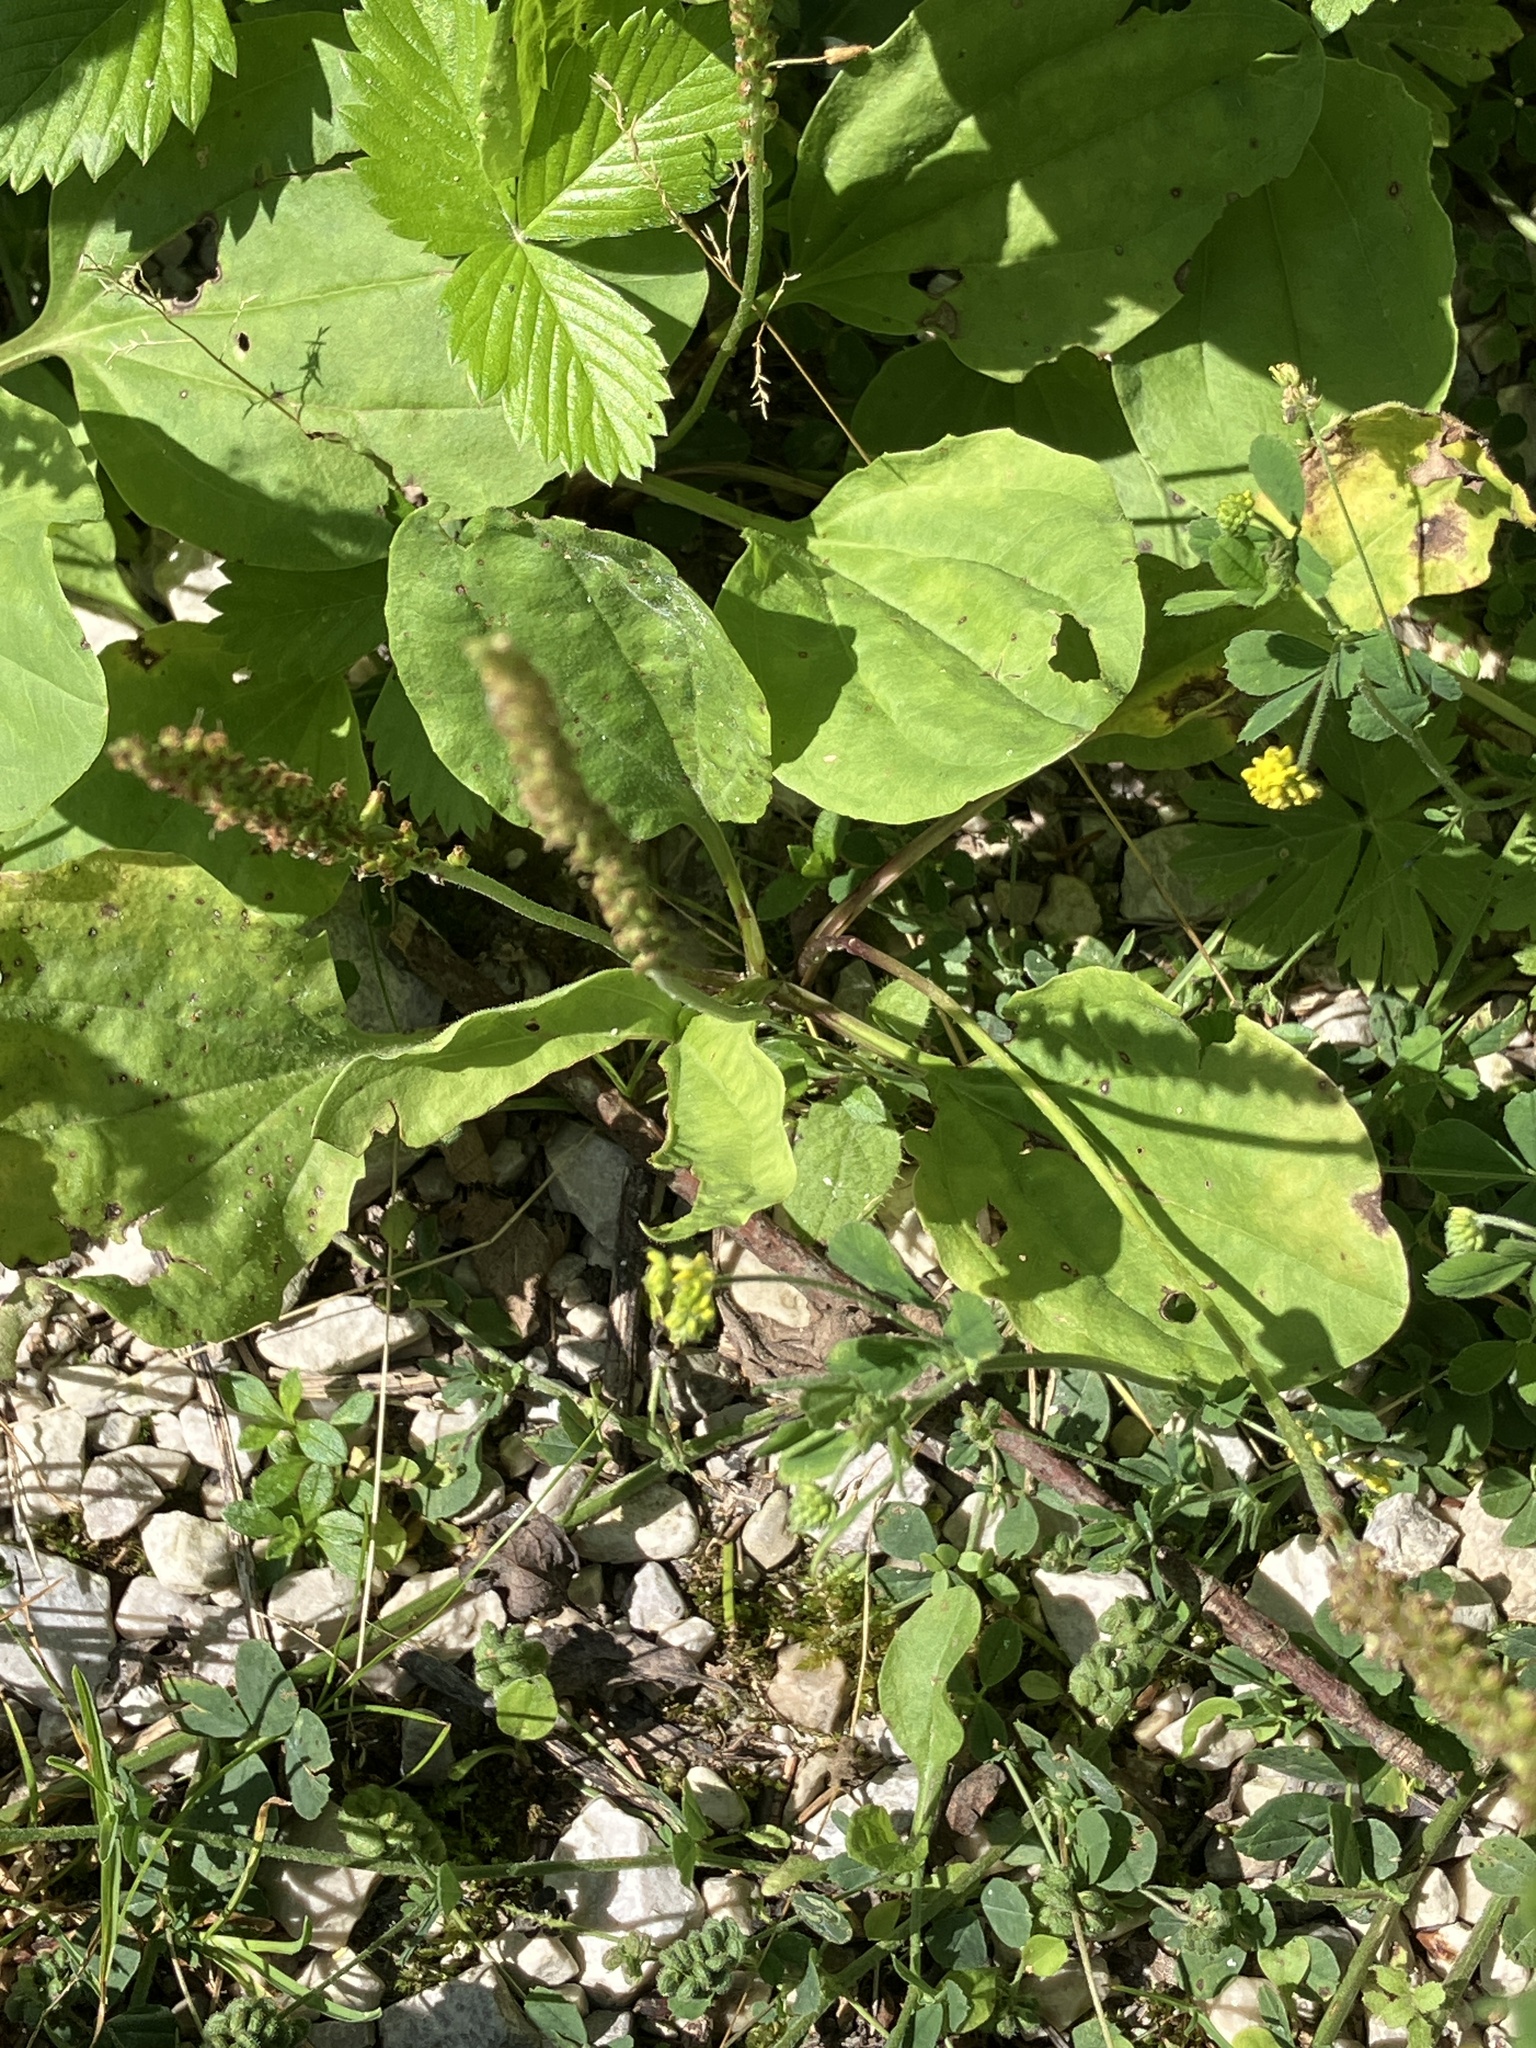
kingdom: Plantae
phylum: Tracheophyta
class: Magnoliopsida
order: Lamiales
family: Plantaginaceae
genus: Plantago
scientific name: Plantago major
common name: Common plantain
